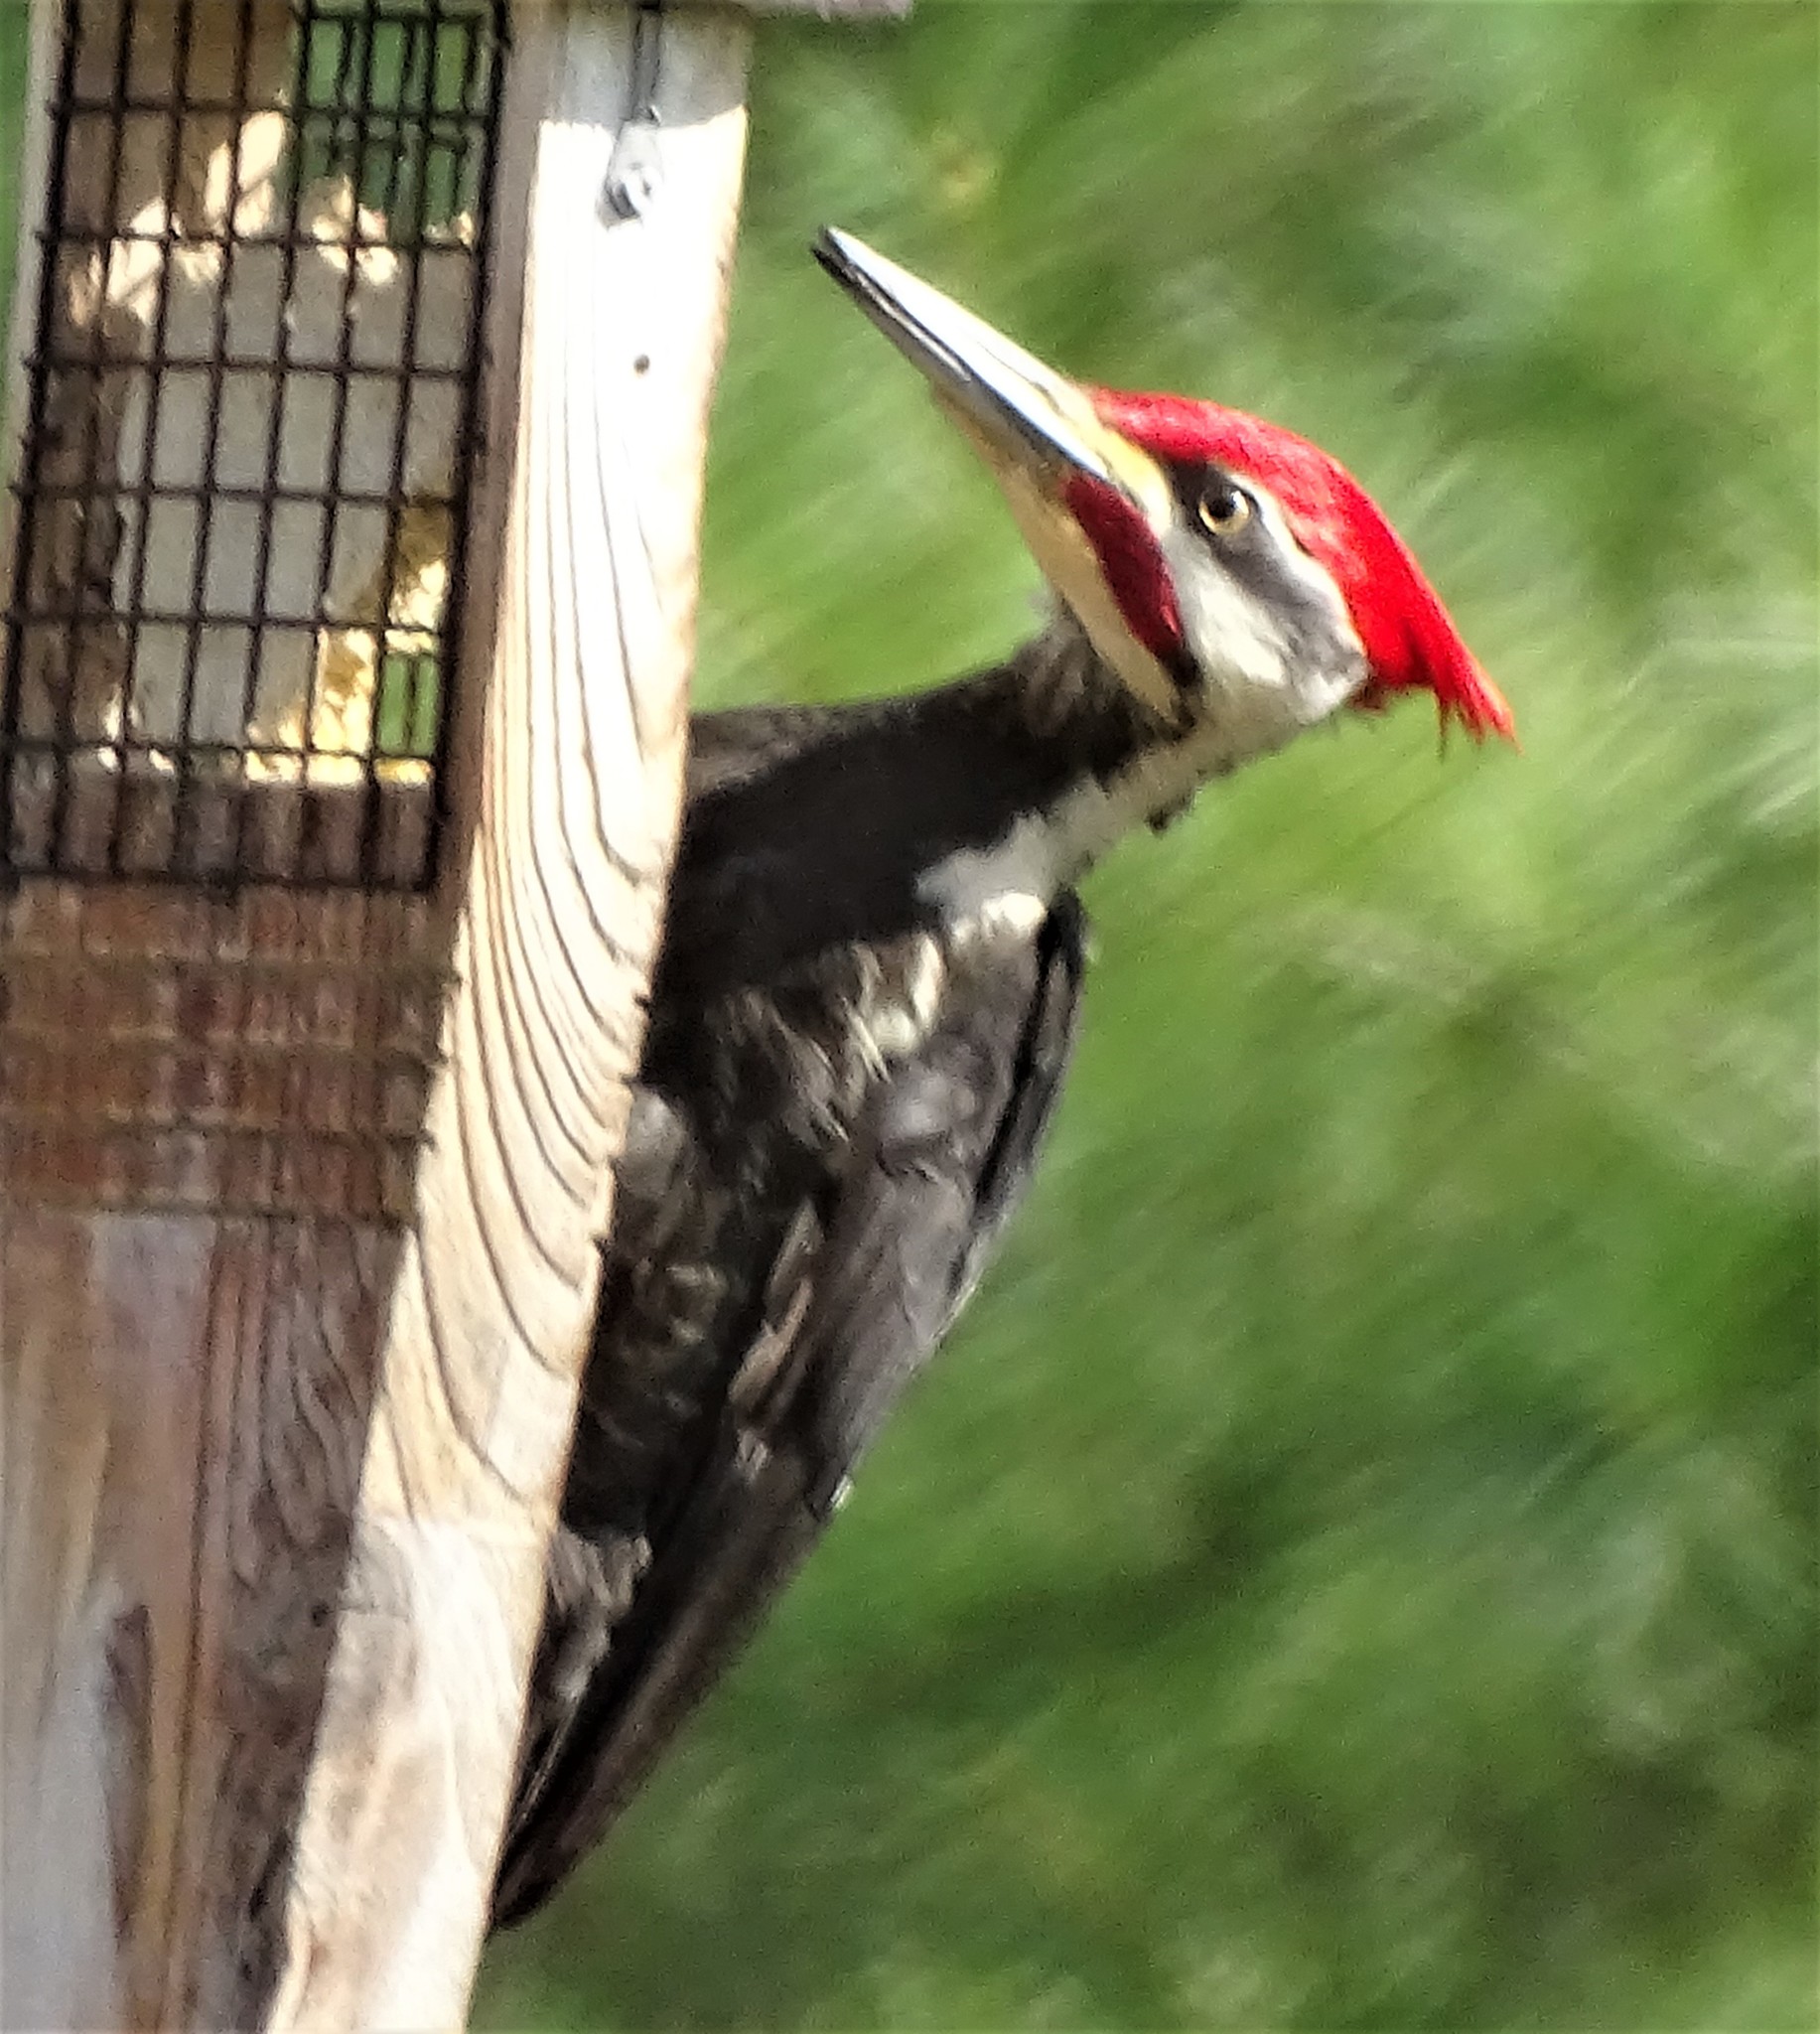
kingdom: Animalia
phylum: Chordata
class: Aves
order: Piciformes
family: Picidae
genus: Dryocopus
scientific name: Dryocopus pileatus
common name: Pileated woodpecker
